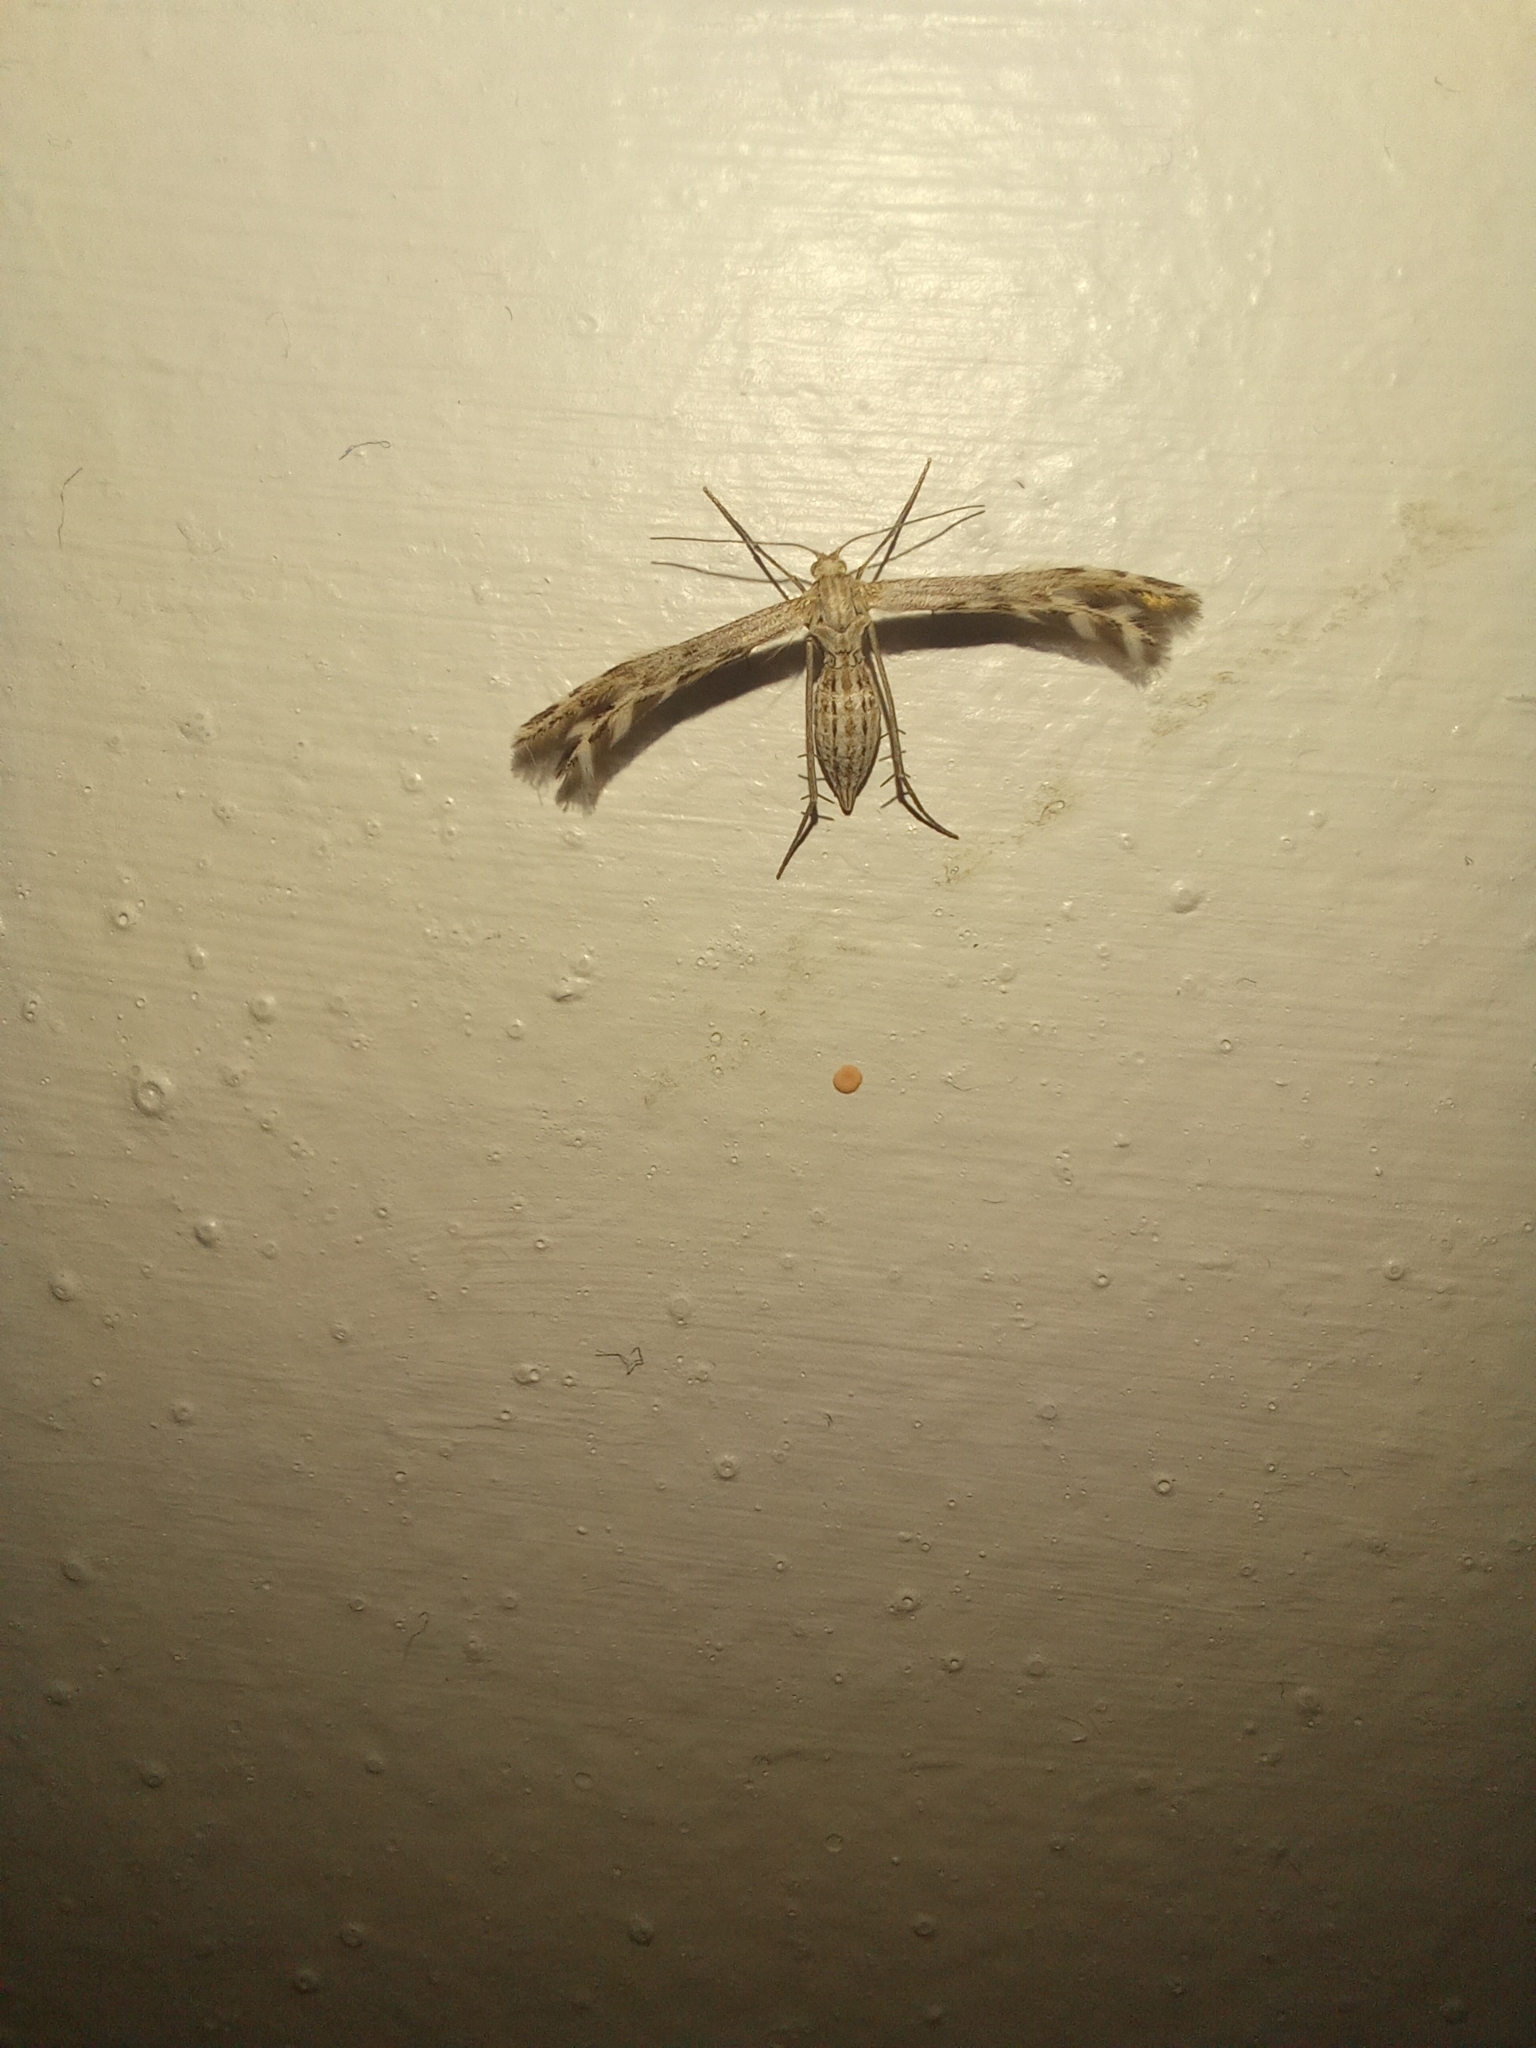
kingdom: Animalia
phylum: Arthropoda
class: Insecta
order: Lepidoptera
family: Pterophoridae
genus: Singularia
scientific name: Singularia alternaria
